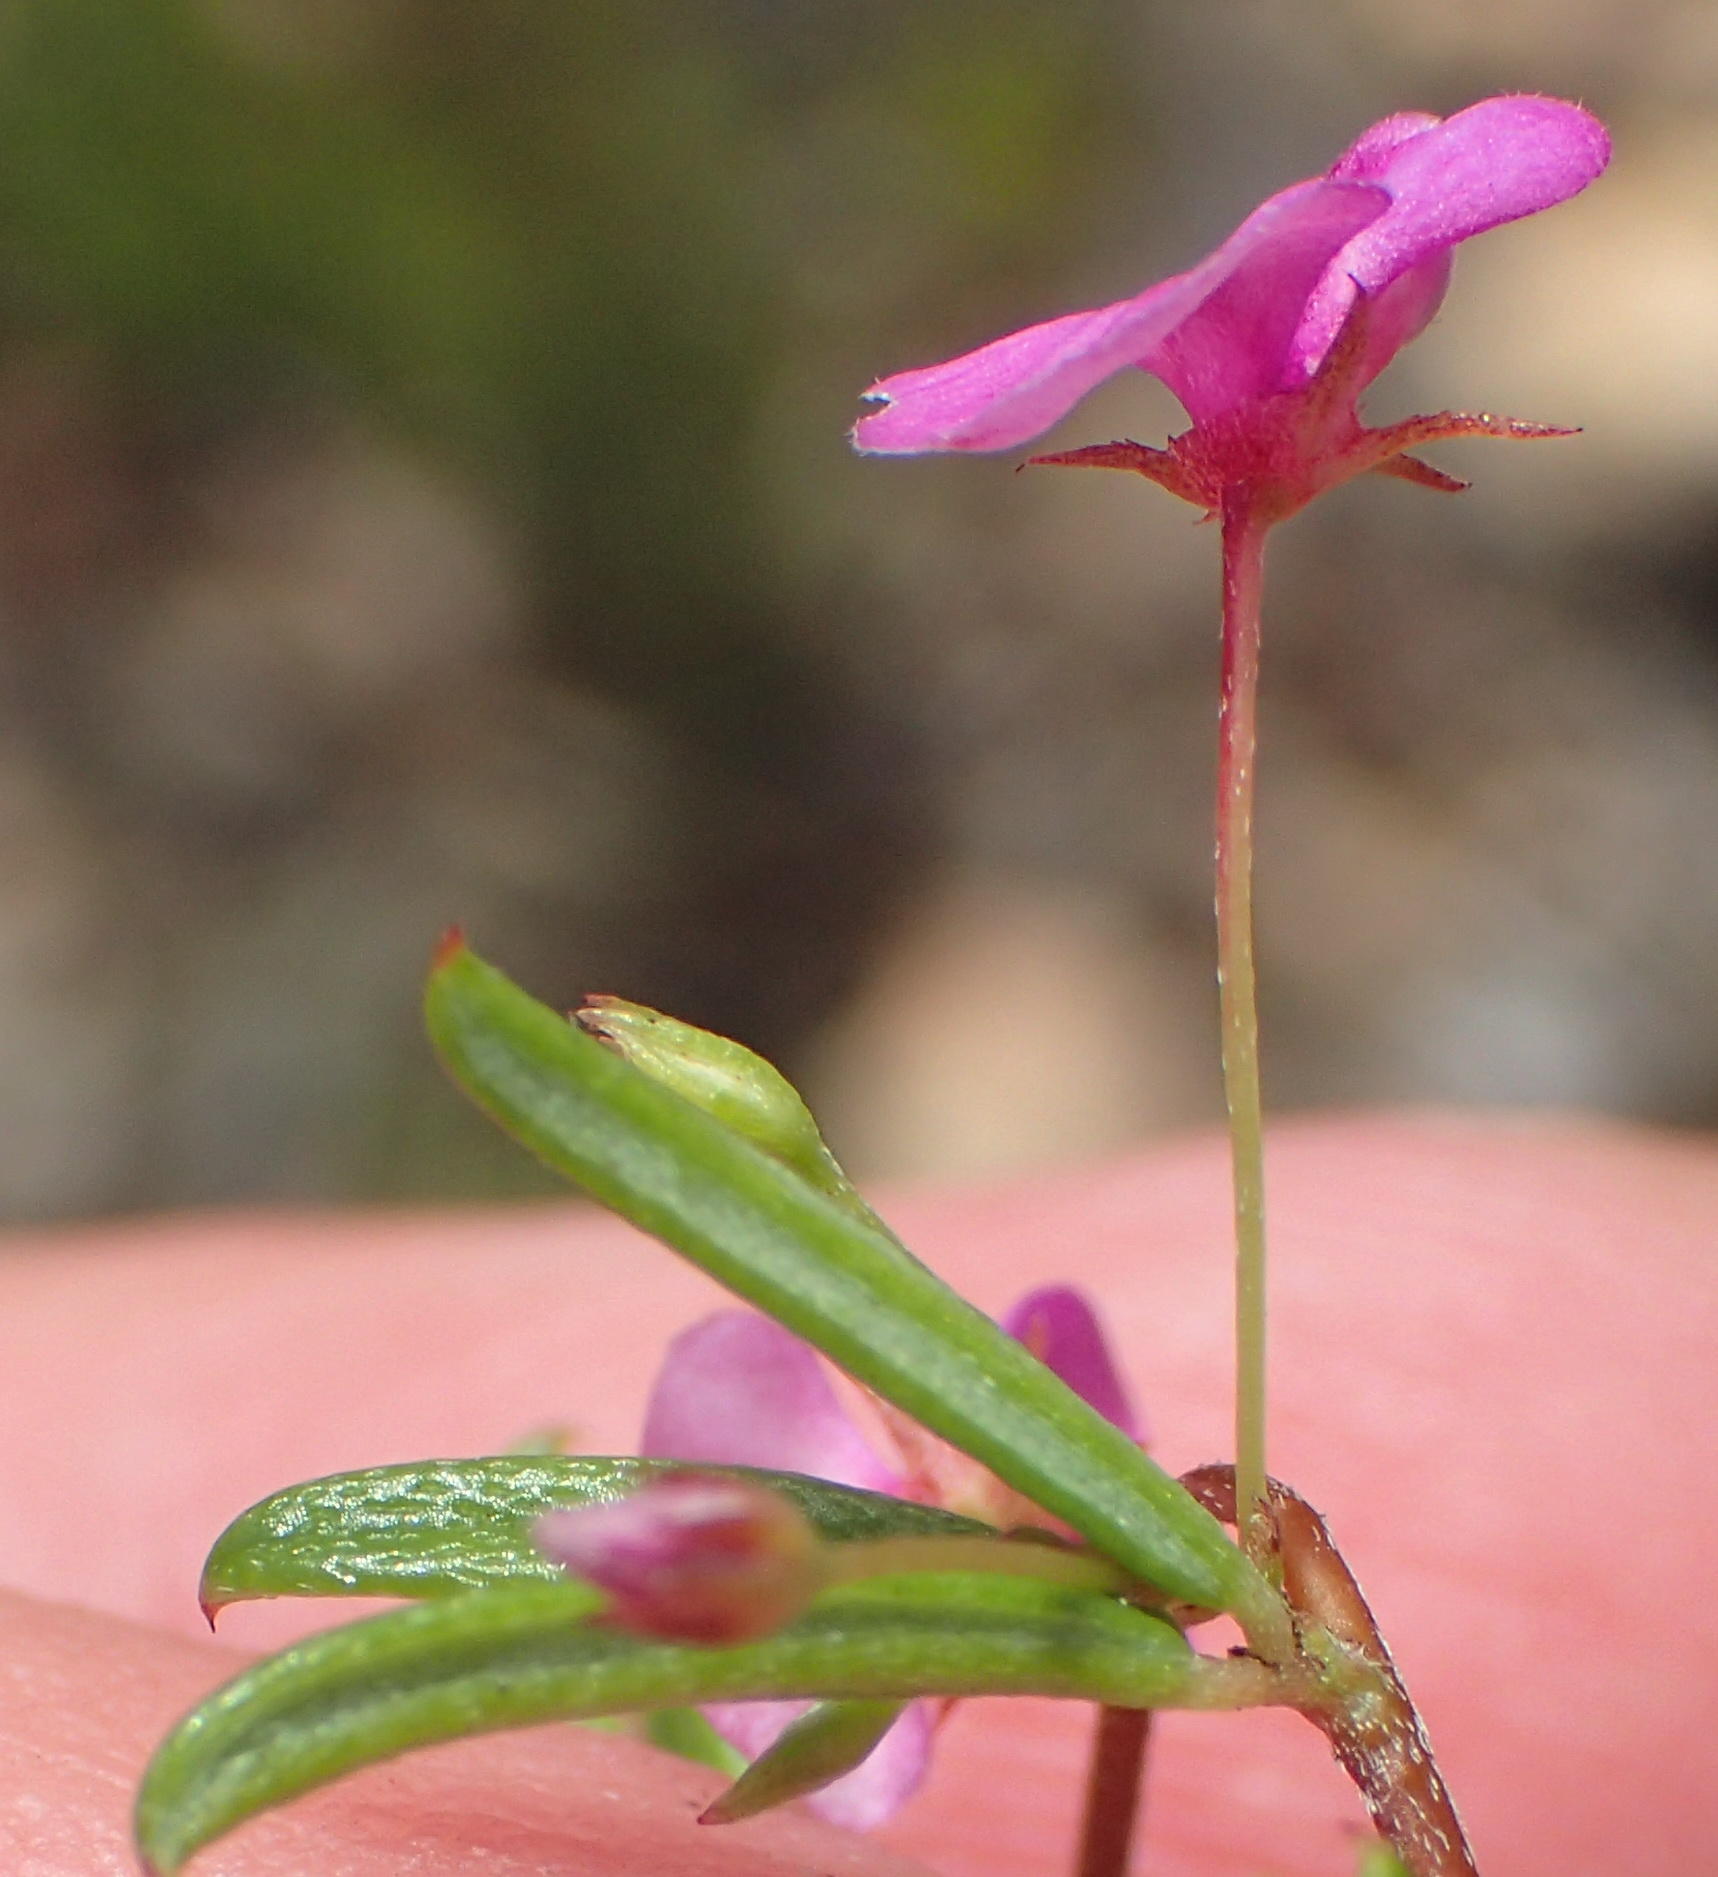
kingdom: Plantae
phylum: Tracheophyta
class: Magnoliopsida
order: Fabales
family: Fabaceae
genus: Indigofera
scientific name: Indigofera setosa
